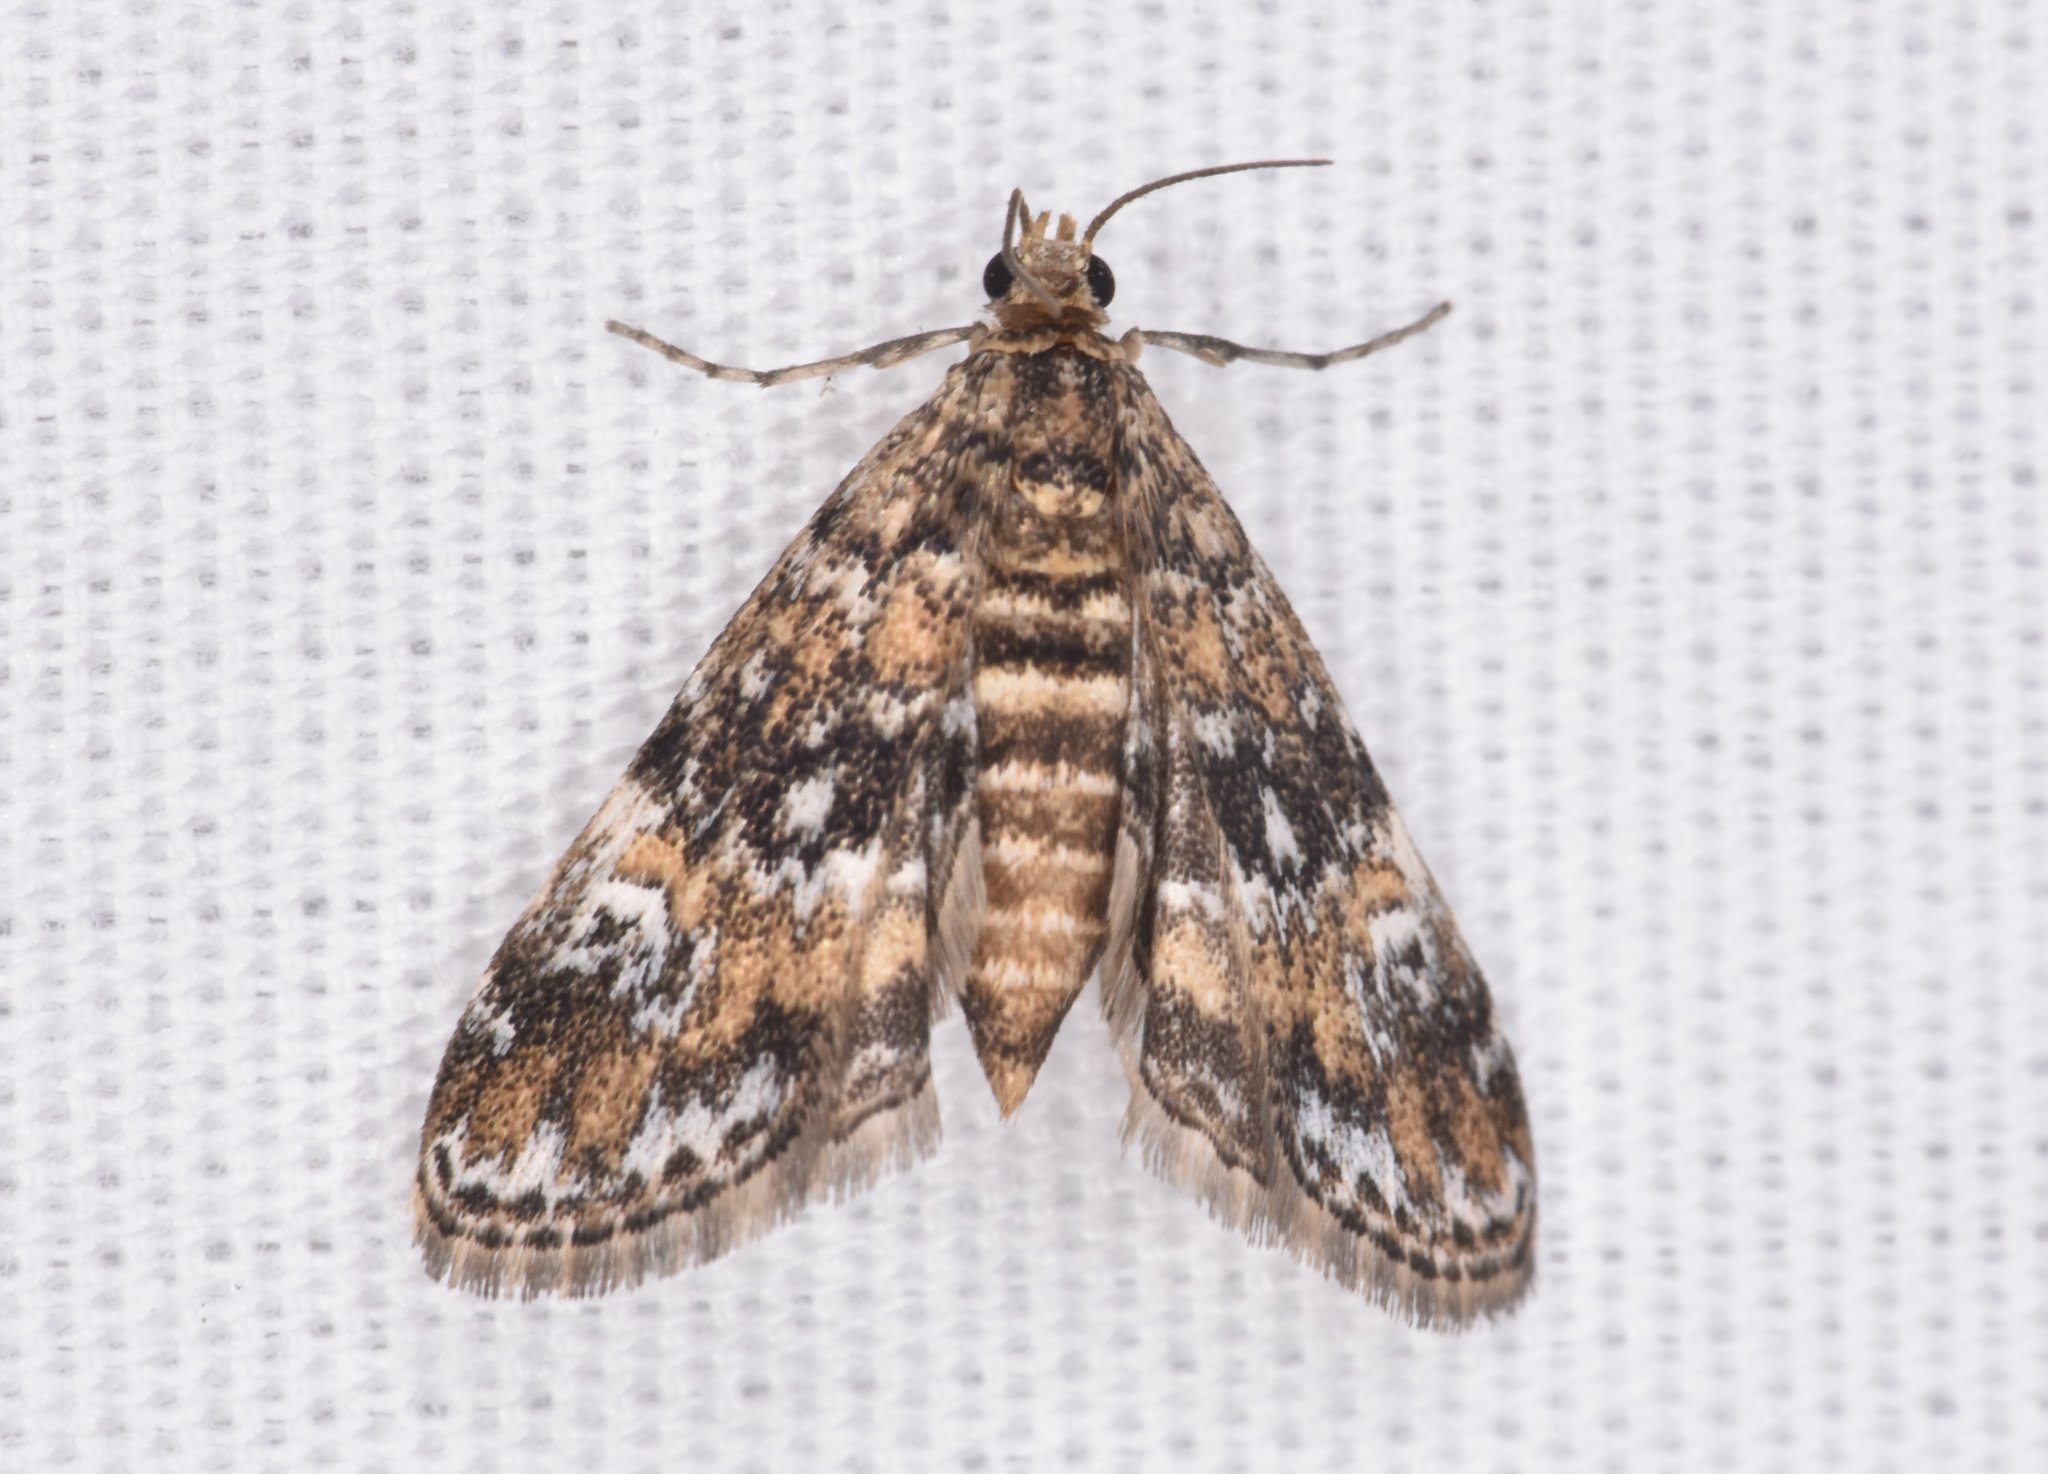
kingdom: Animalia
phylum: Arthropoda
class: Insecta
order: Lepidoptera
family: Crambidae
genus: Elophila
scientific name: Elophila obliteralis
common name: Waterlily leafcutter moth
